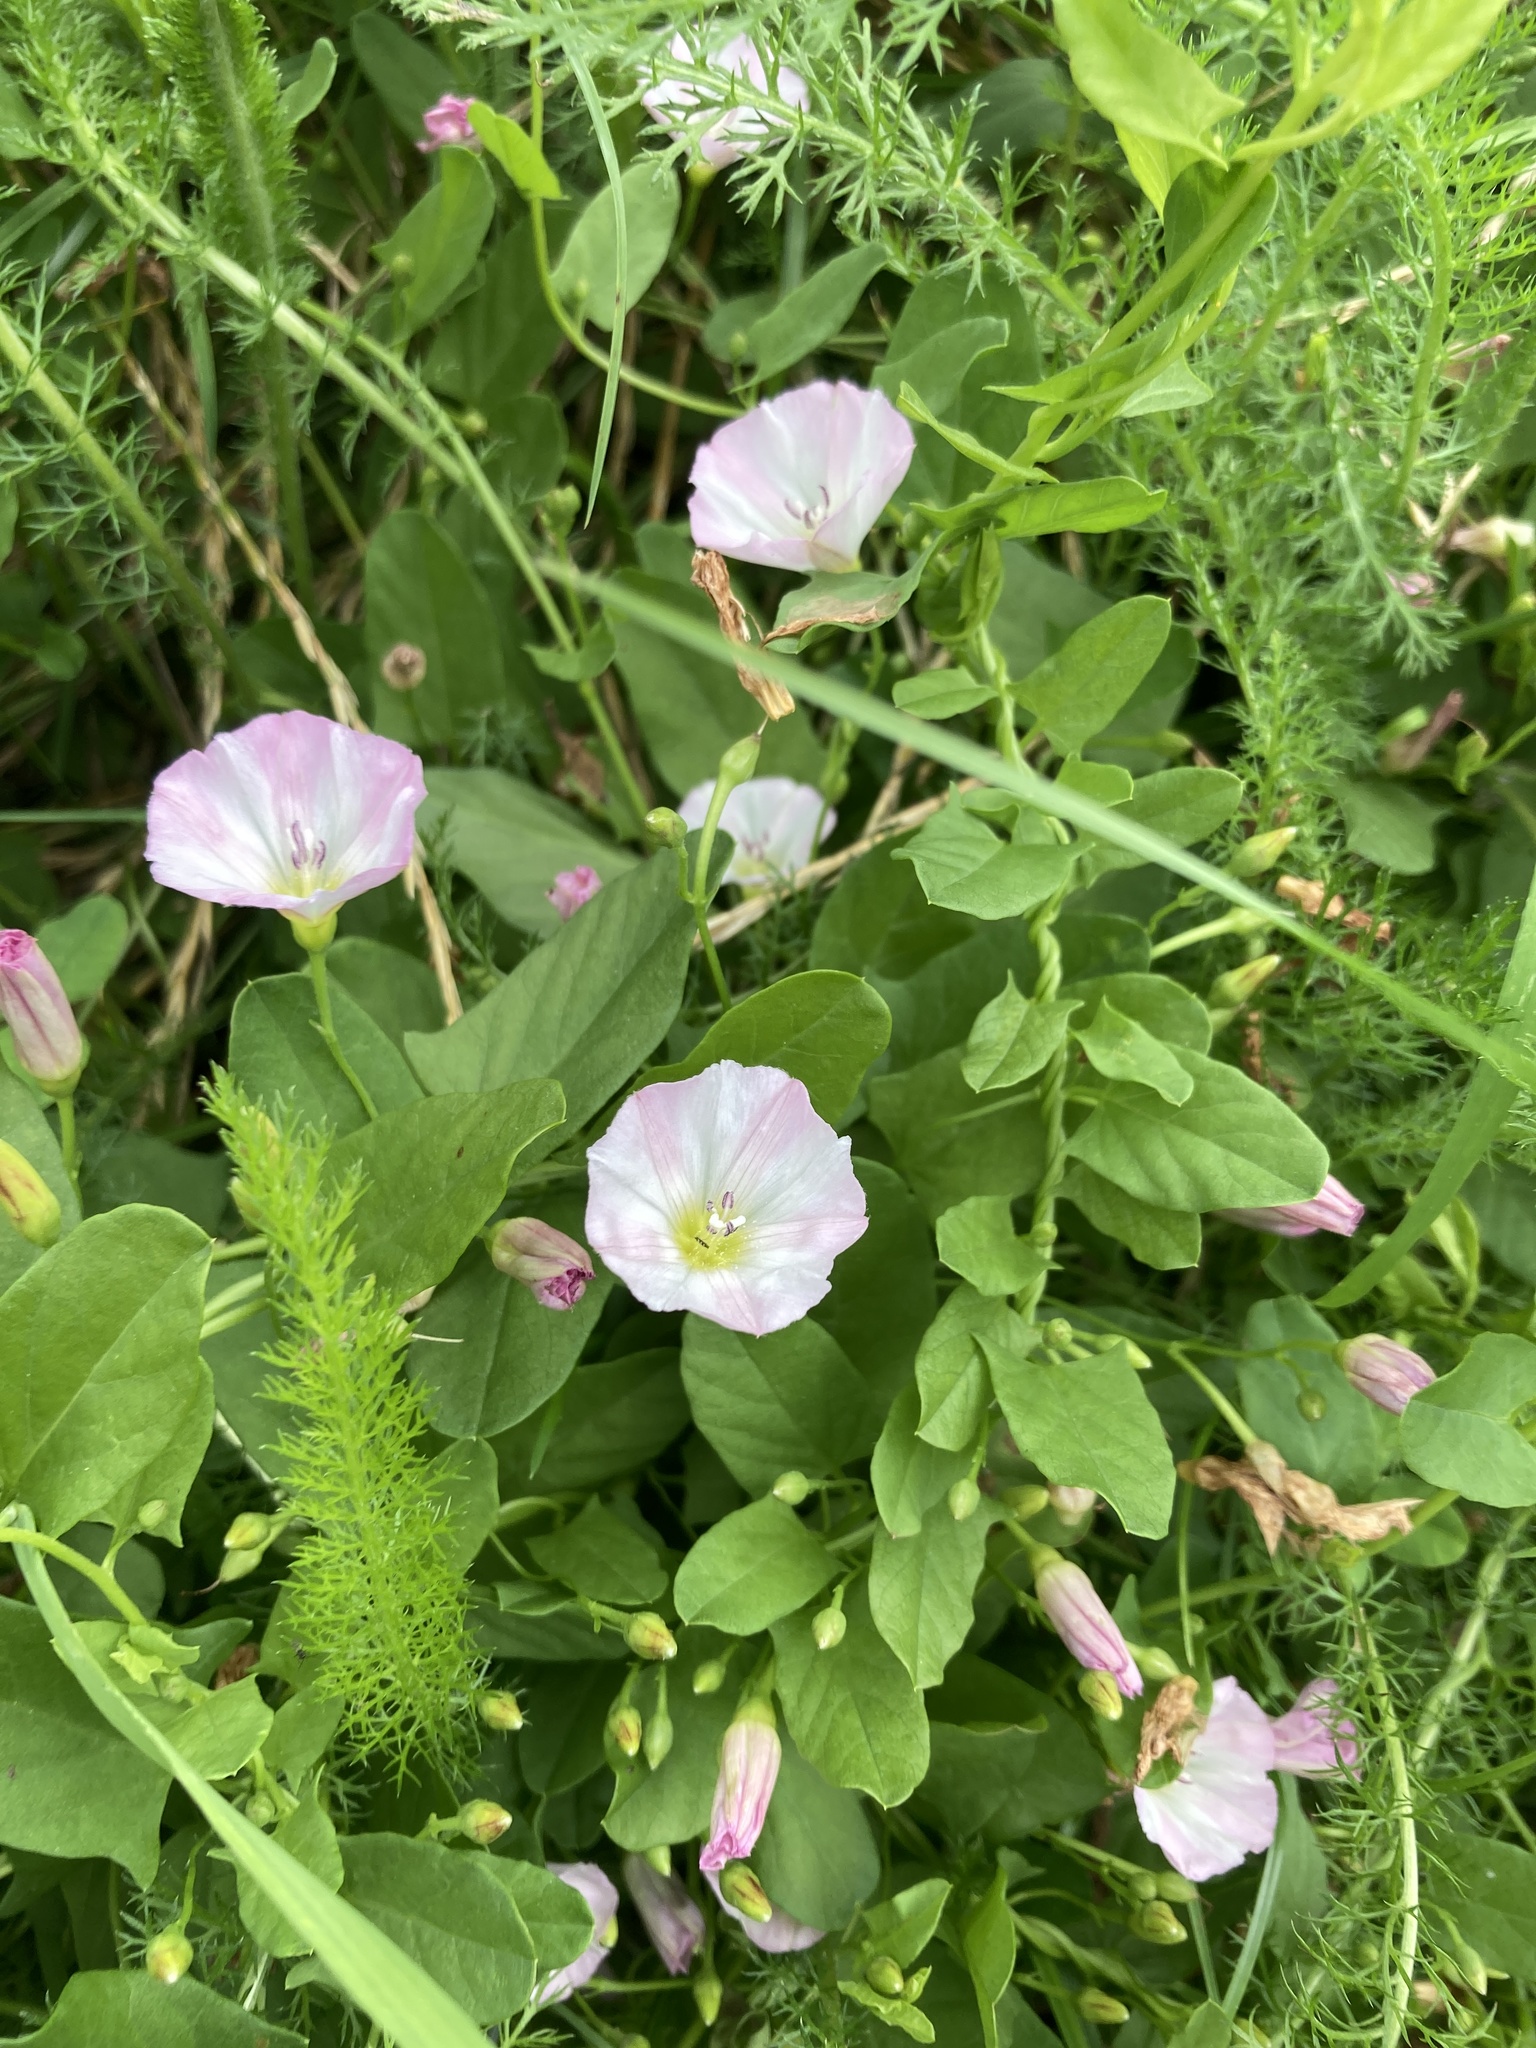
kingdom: Plantae
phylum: Tracheophyta
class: Magnoliopsida
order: Solanales
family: Convolvulaceae
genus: Convolvulus
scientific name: Convolvulus arvensis
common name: Field bindweed
